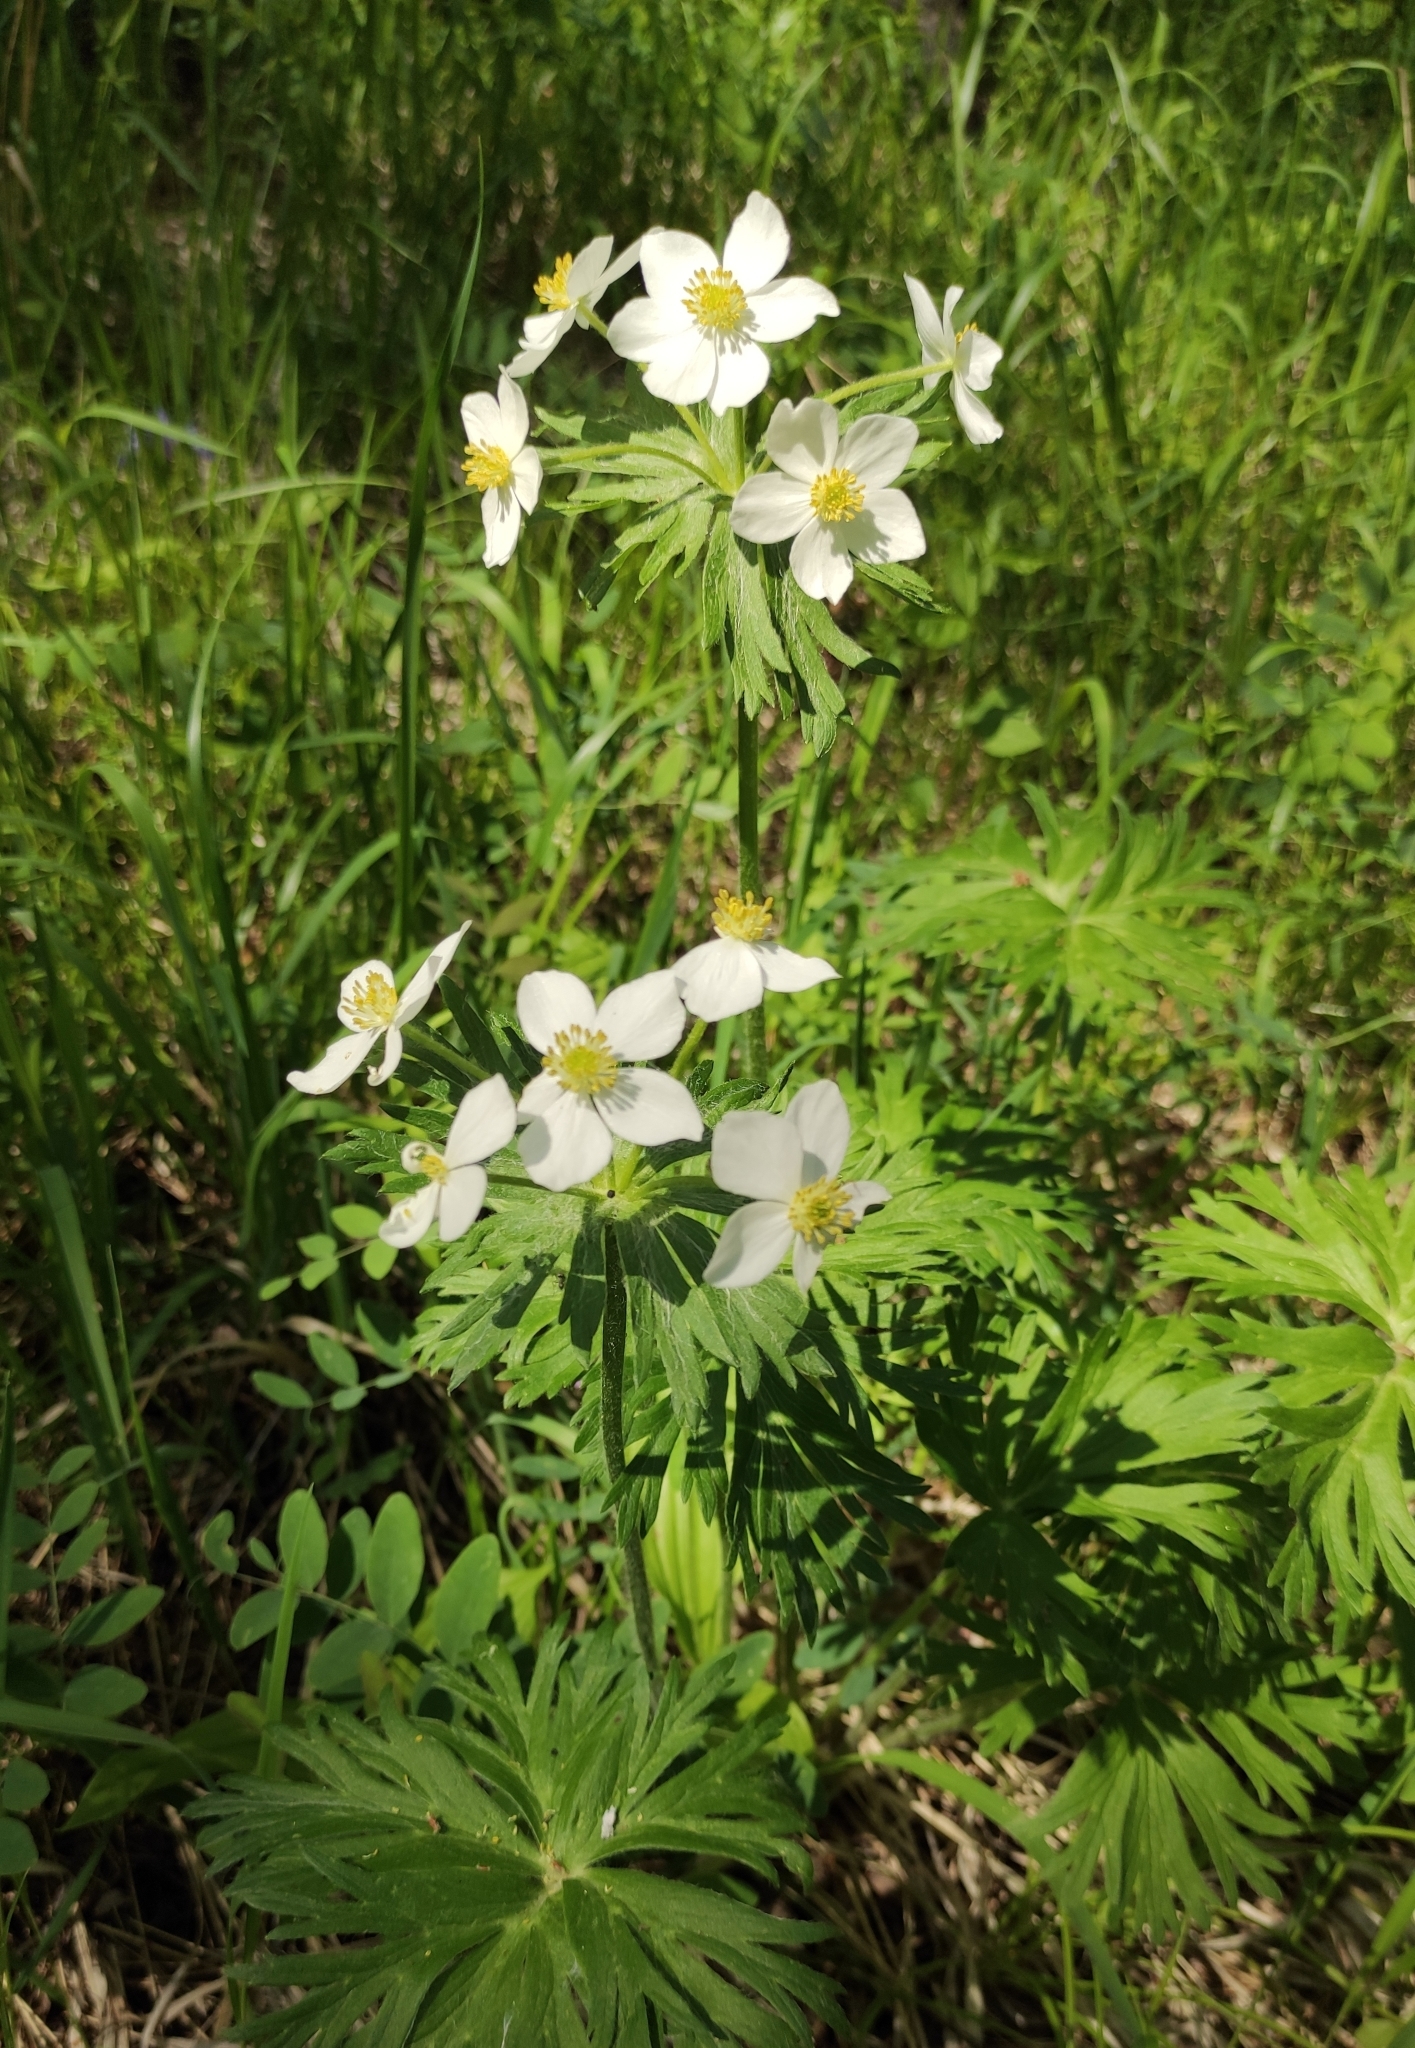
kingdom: Plantae
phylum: Tracheophyta
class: Magnoliopsida
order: Ranunculales
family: Ranunculaceae
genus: Anemonastrum
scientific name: Anemonastrum narcissiflorum
